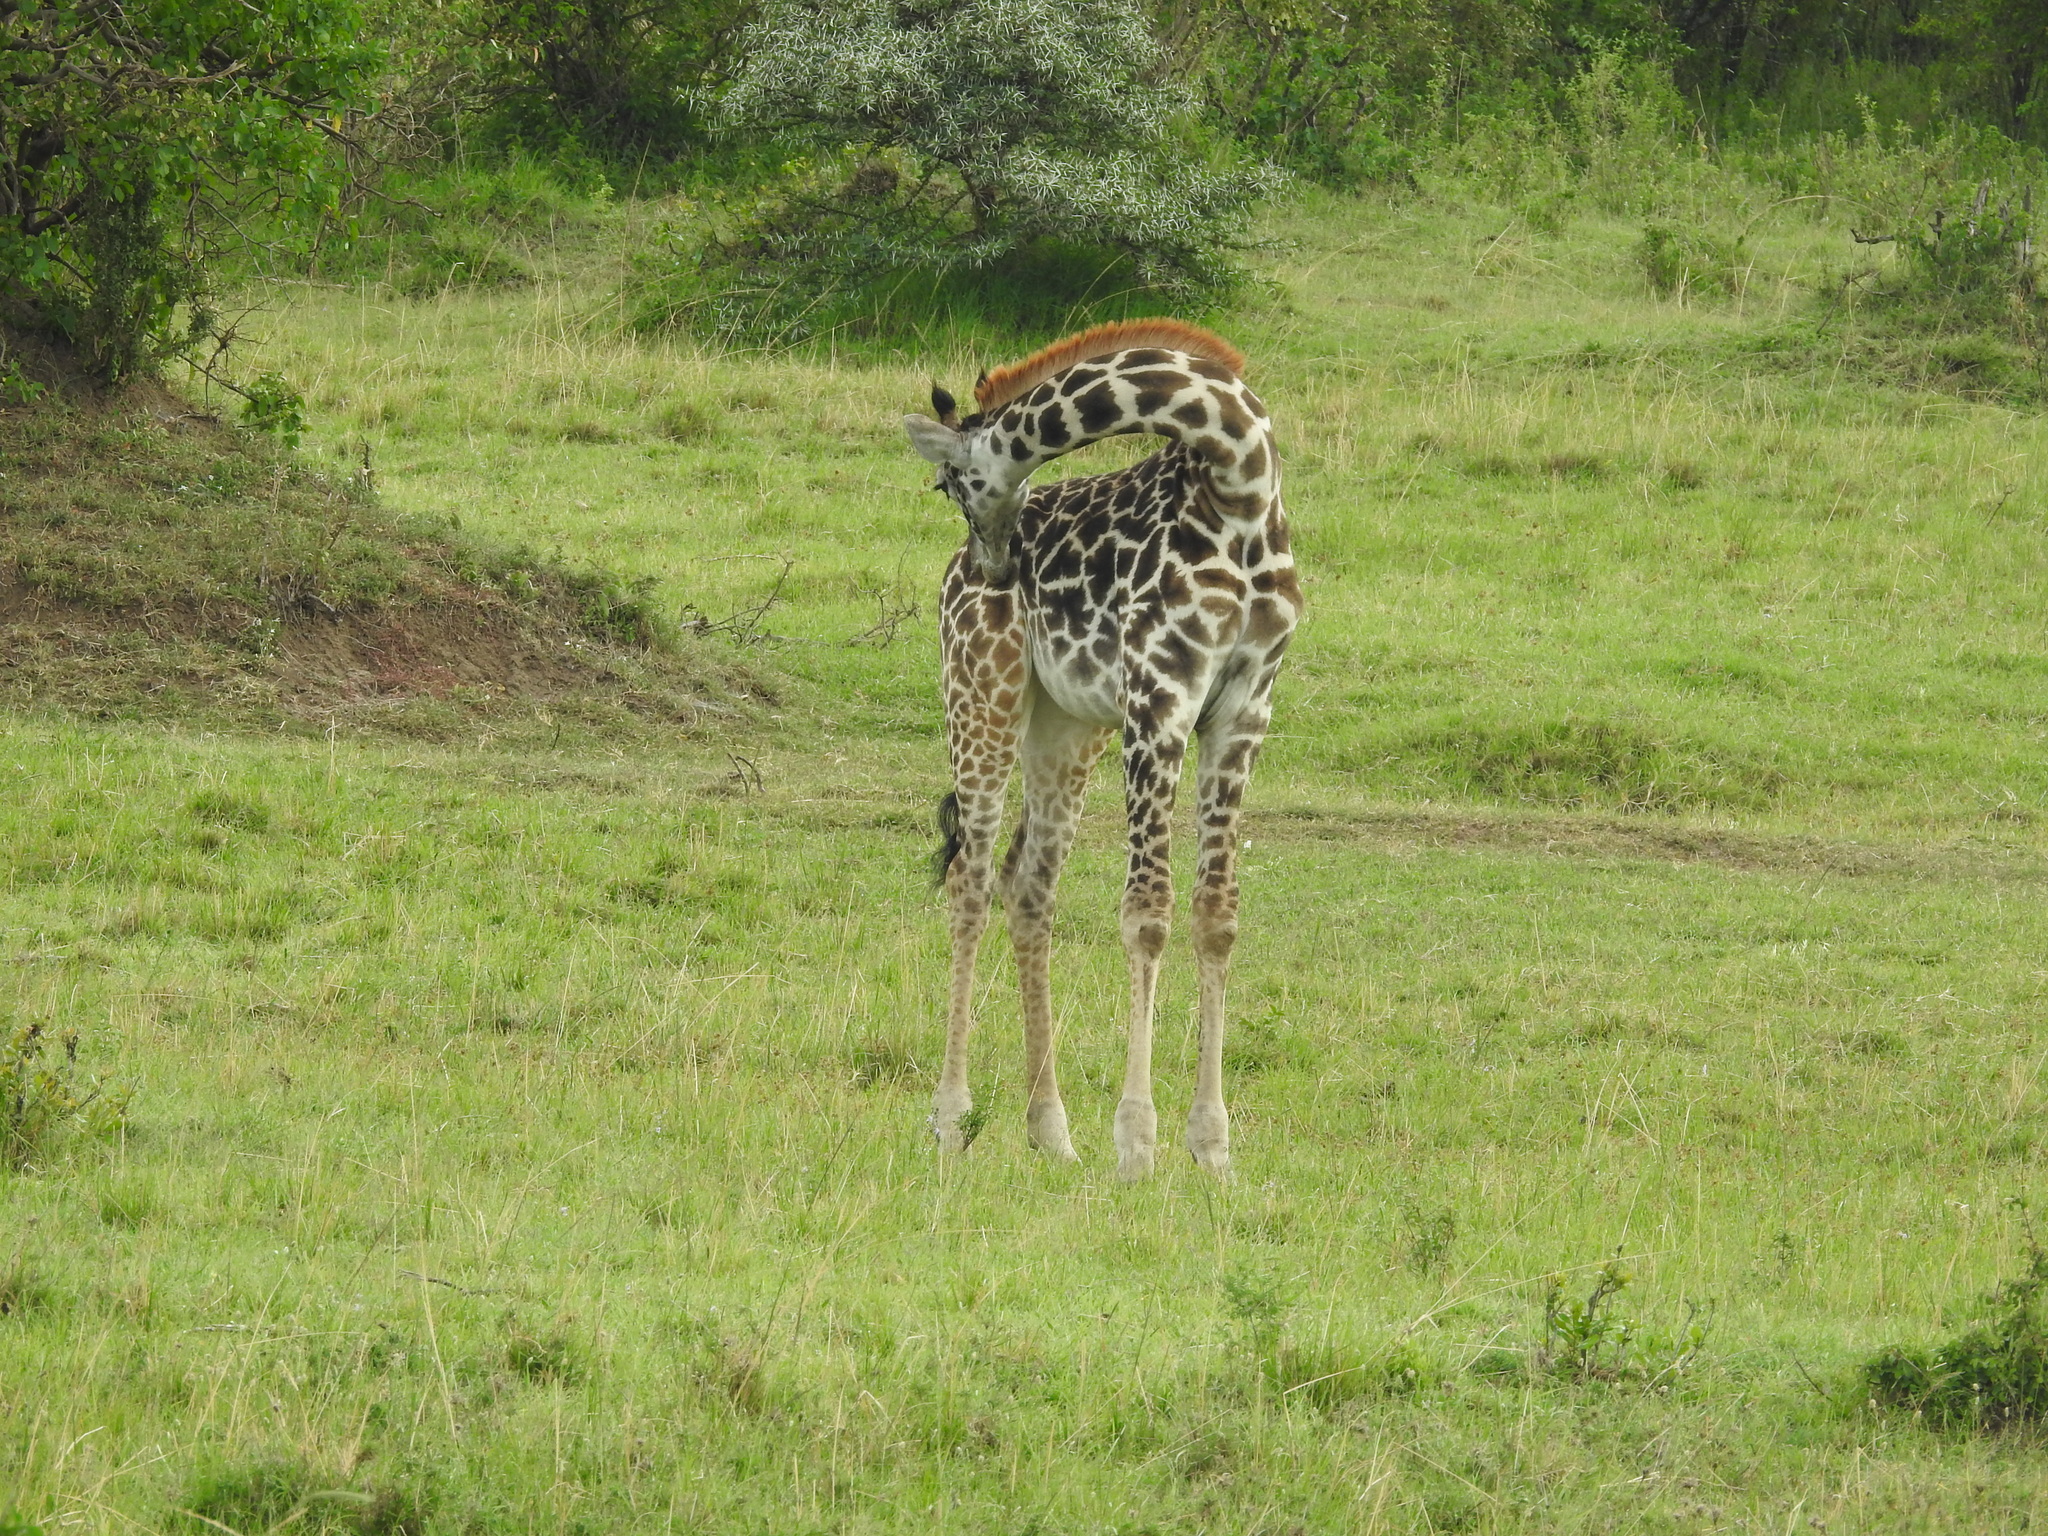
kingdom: Animalia
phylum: Chordata
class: Mammalia
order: Artiodactyla
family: Giraffidae
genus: Giraffa
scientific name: Giraffa tippelskirchi
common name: Masai giraffe
